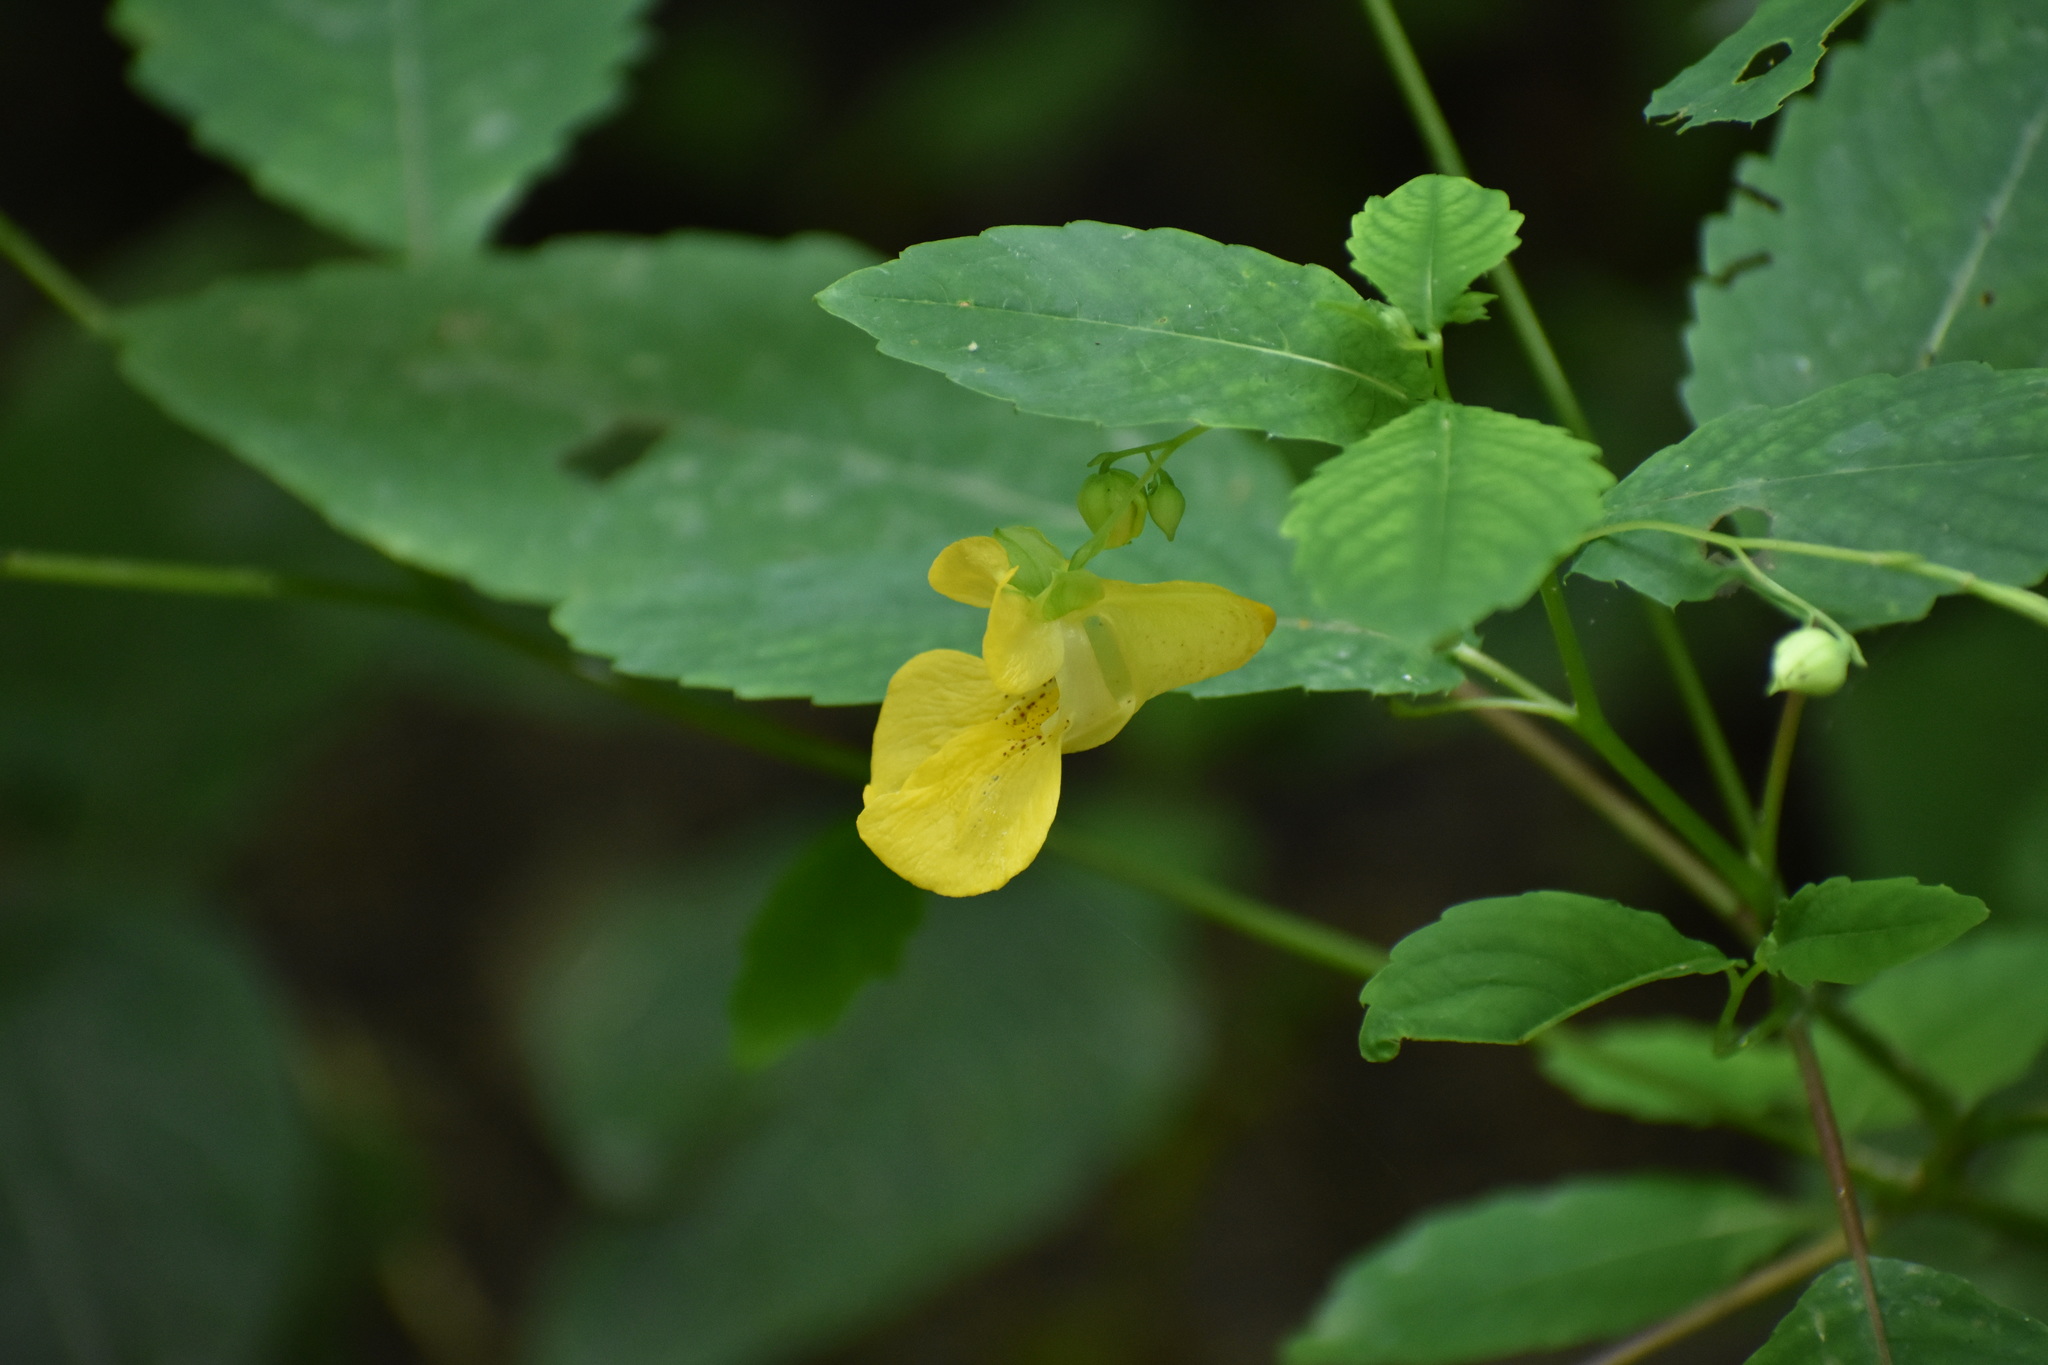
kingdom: Plantae
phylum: Tracheophyta
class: Magnoliopsida
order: Ericales
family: Balsaminaceae
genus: Impatiens
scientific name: Impatiens pallida
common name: Pale snapweed
